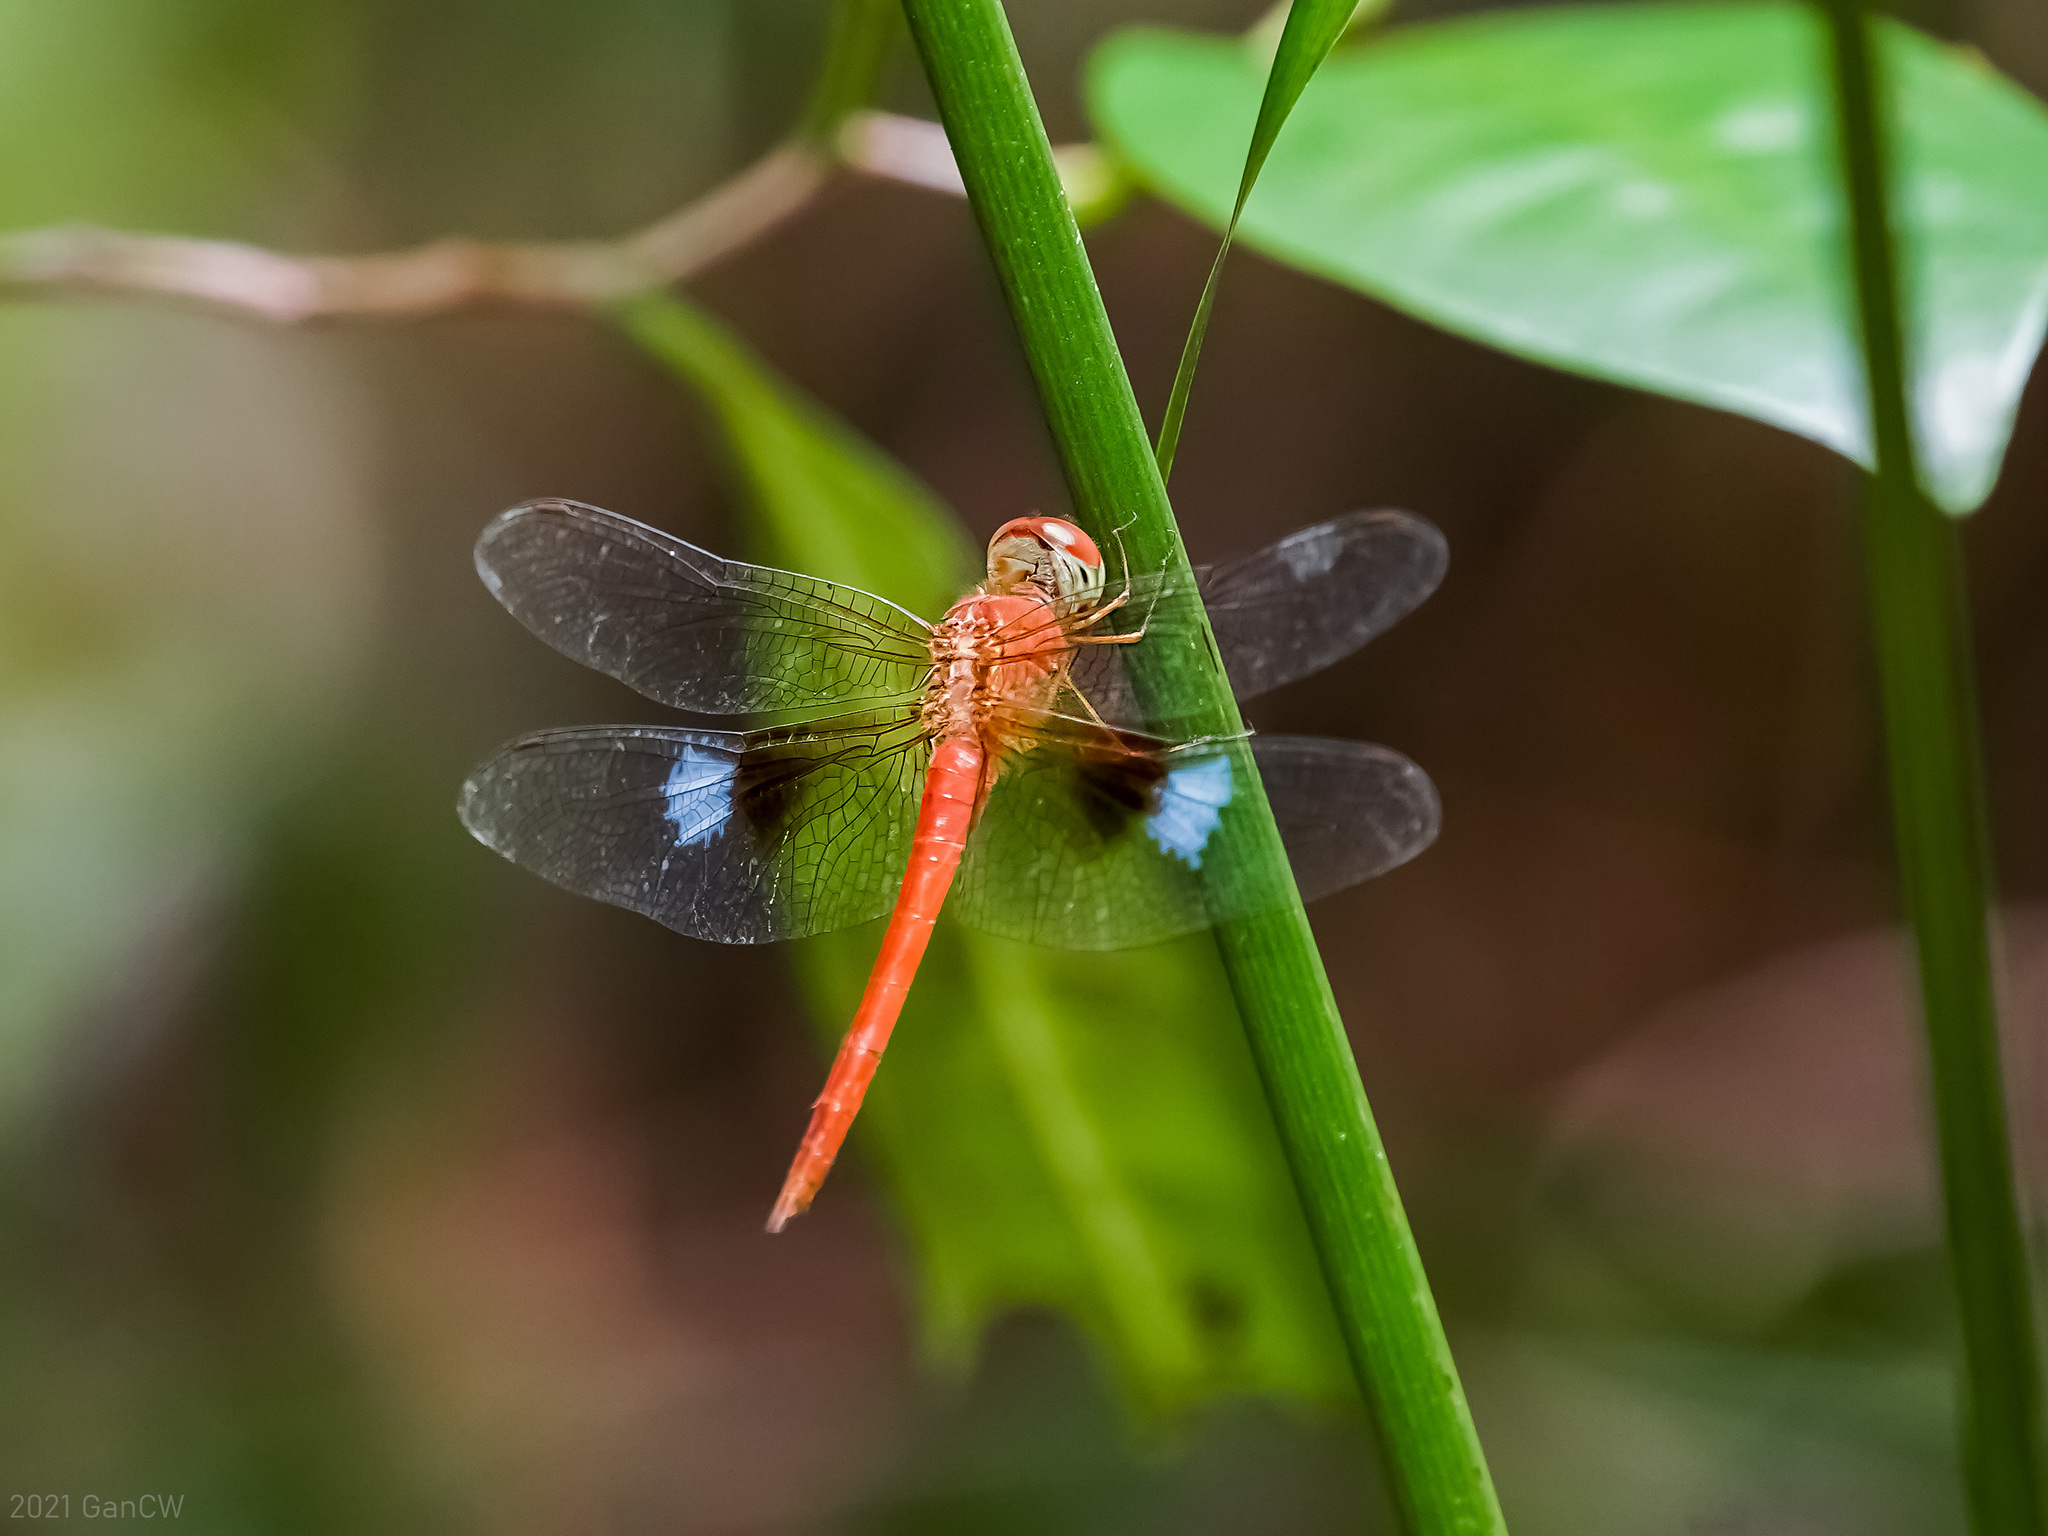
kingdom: Animalia
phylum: Arthropoda
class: Insecta
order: Odonata
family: Libellulidae
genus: Tholymis
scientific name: Tholymis tillarga
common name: Coral-tailed cloud wing
